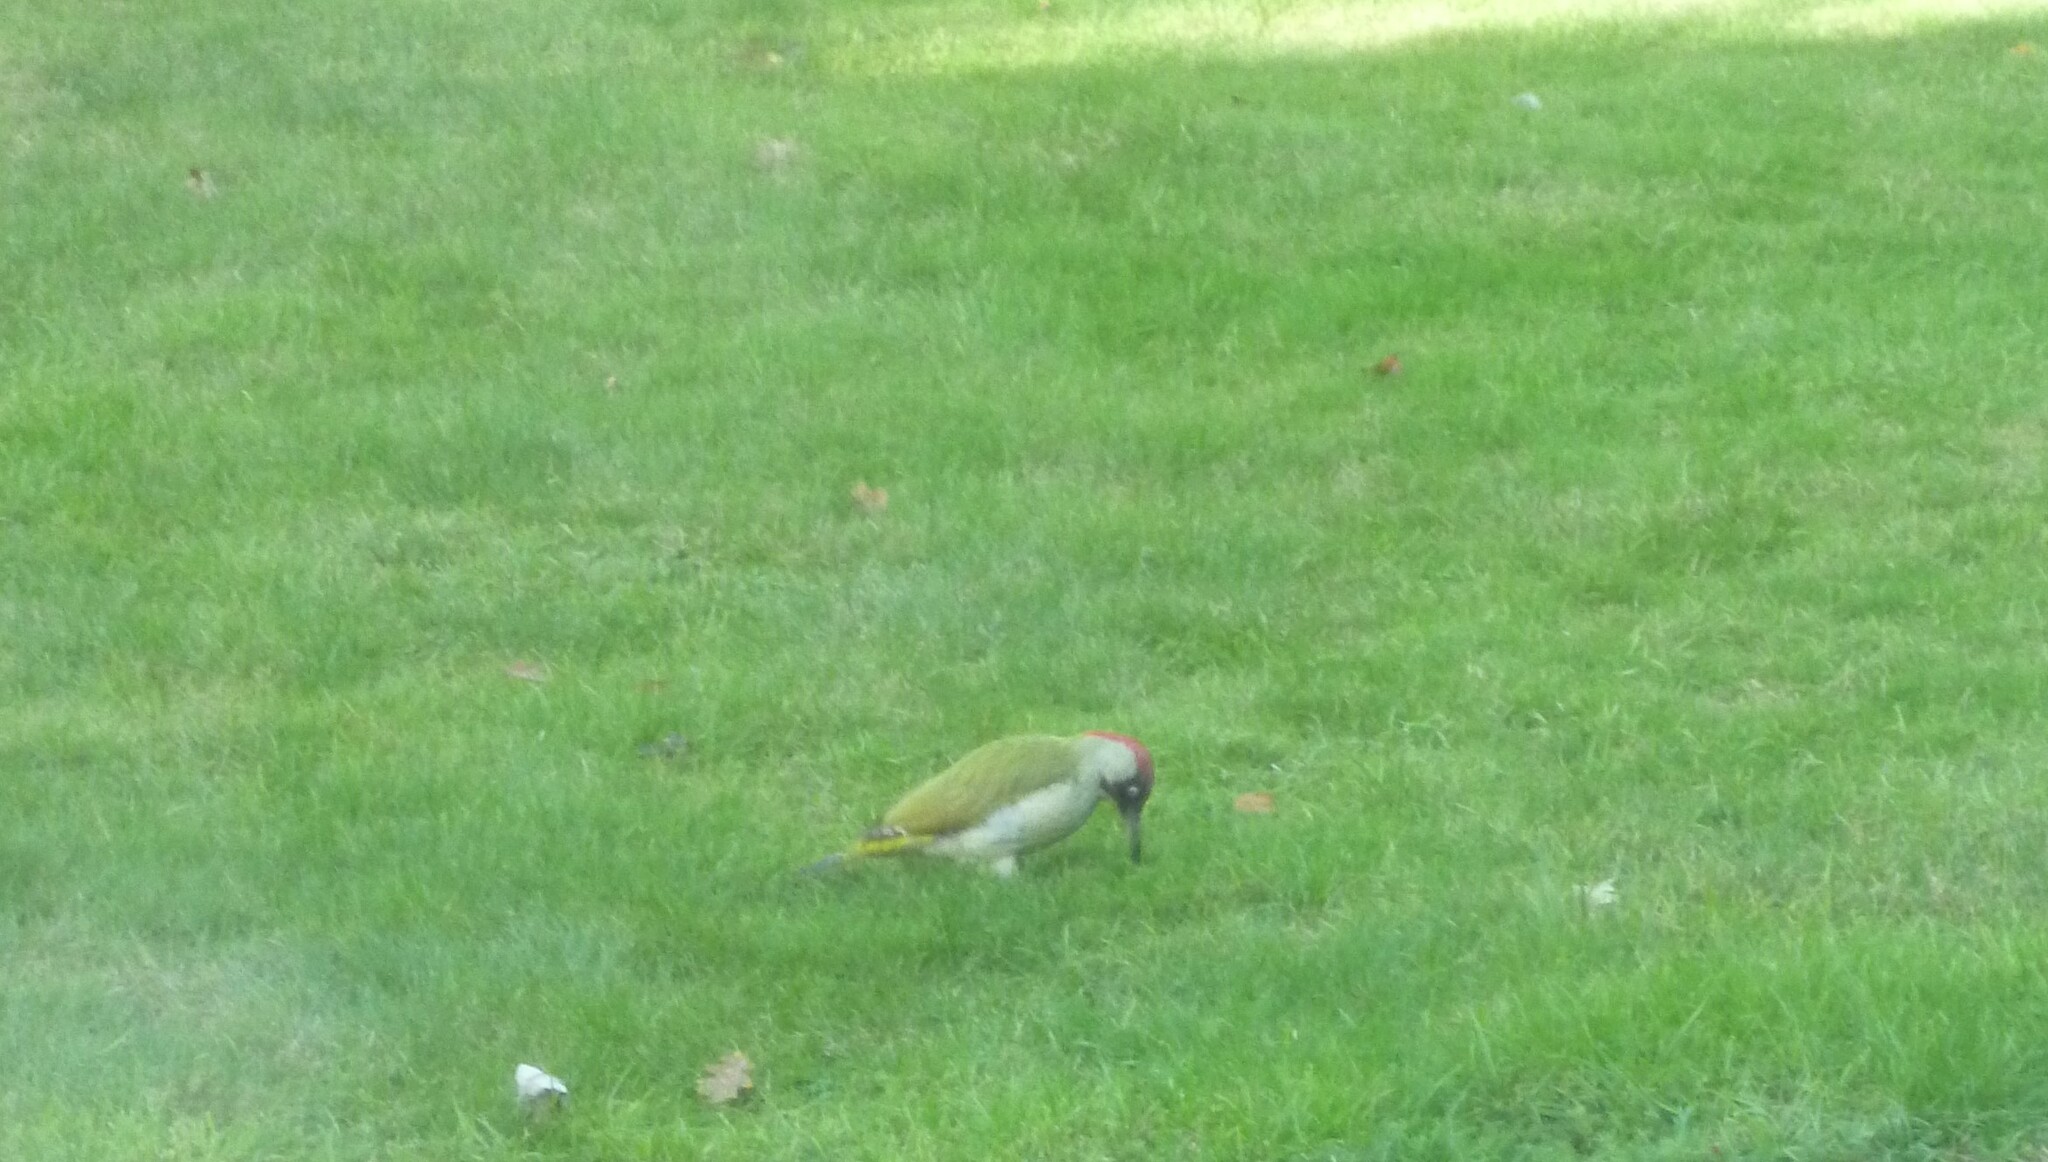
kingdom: Animalia
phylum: Chordata
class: Aves
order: Piciformes
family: Picidae
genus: Picus
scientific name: Picus viridis
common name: European green woodpecker
